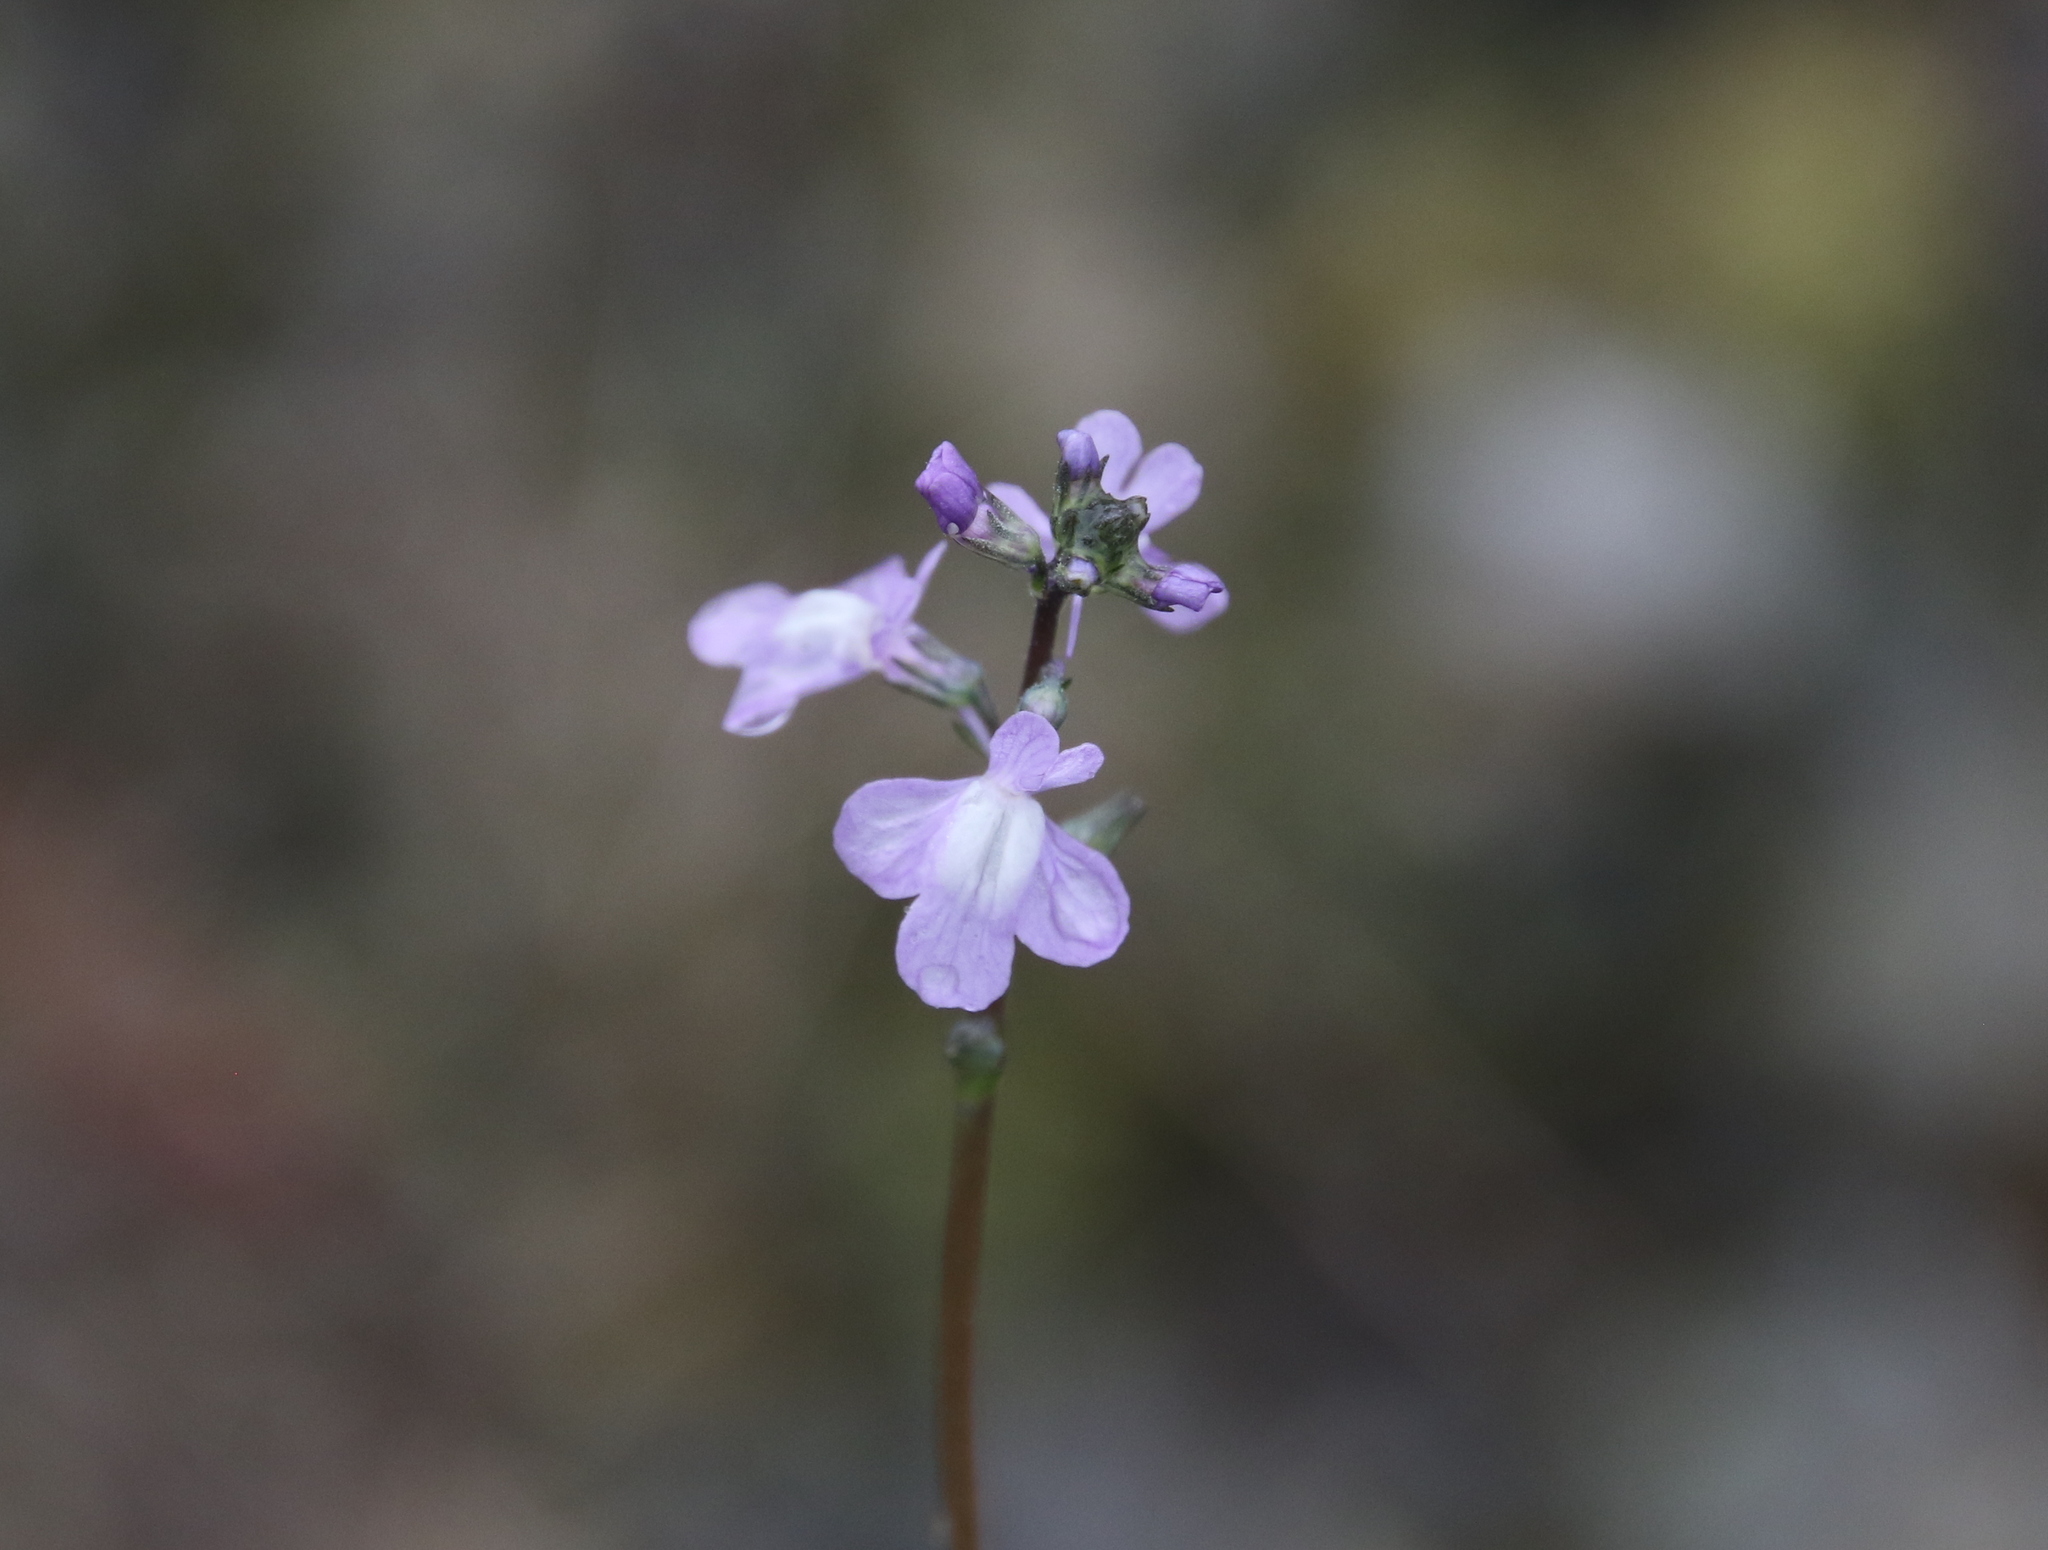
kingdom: Plantae
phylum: Tracheophyta
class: Magnoliopsida
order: Lamiales
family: Plantaginaceae
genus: Nuttallanthus
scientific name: Nuttallanthus canadensis
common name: Blue toadflax
